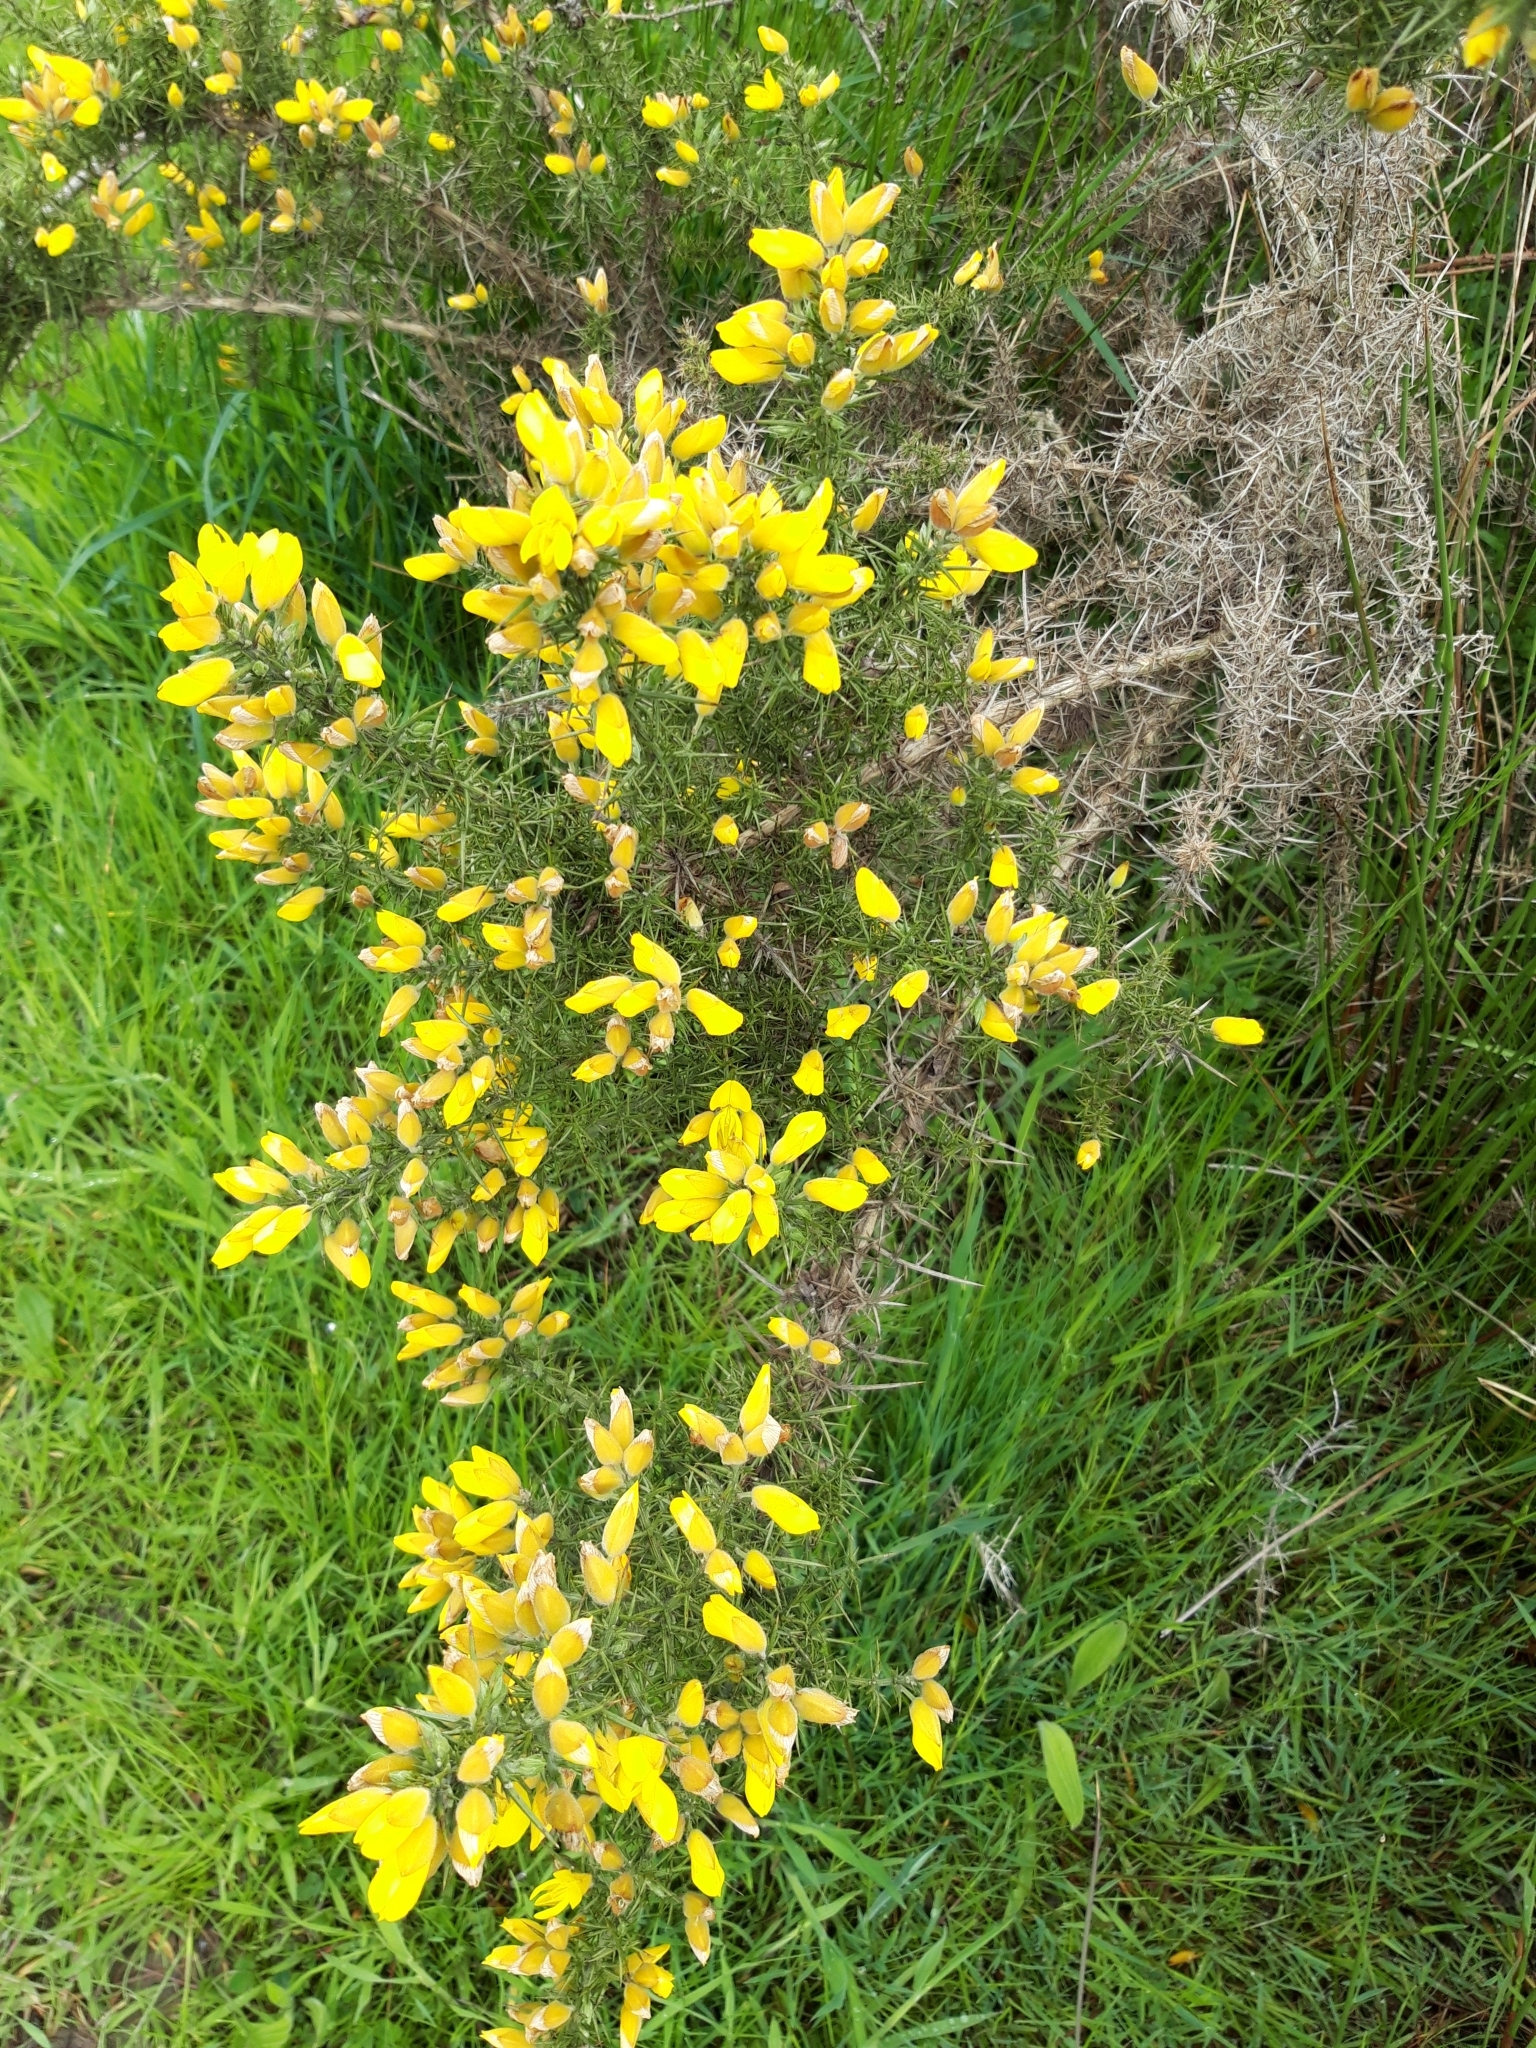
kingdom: Plantae
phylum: Tracheophyta
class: Magnoliopsida
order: Fabales
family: Fabaceae
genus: Ulex
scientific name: Ulex europaeus
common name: Common gorse
